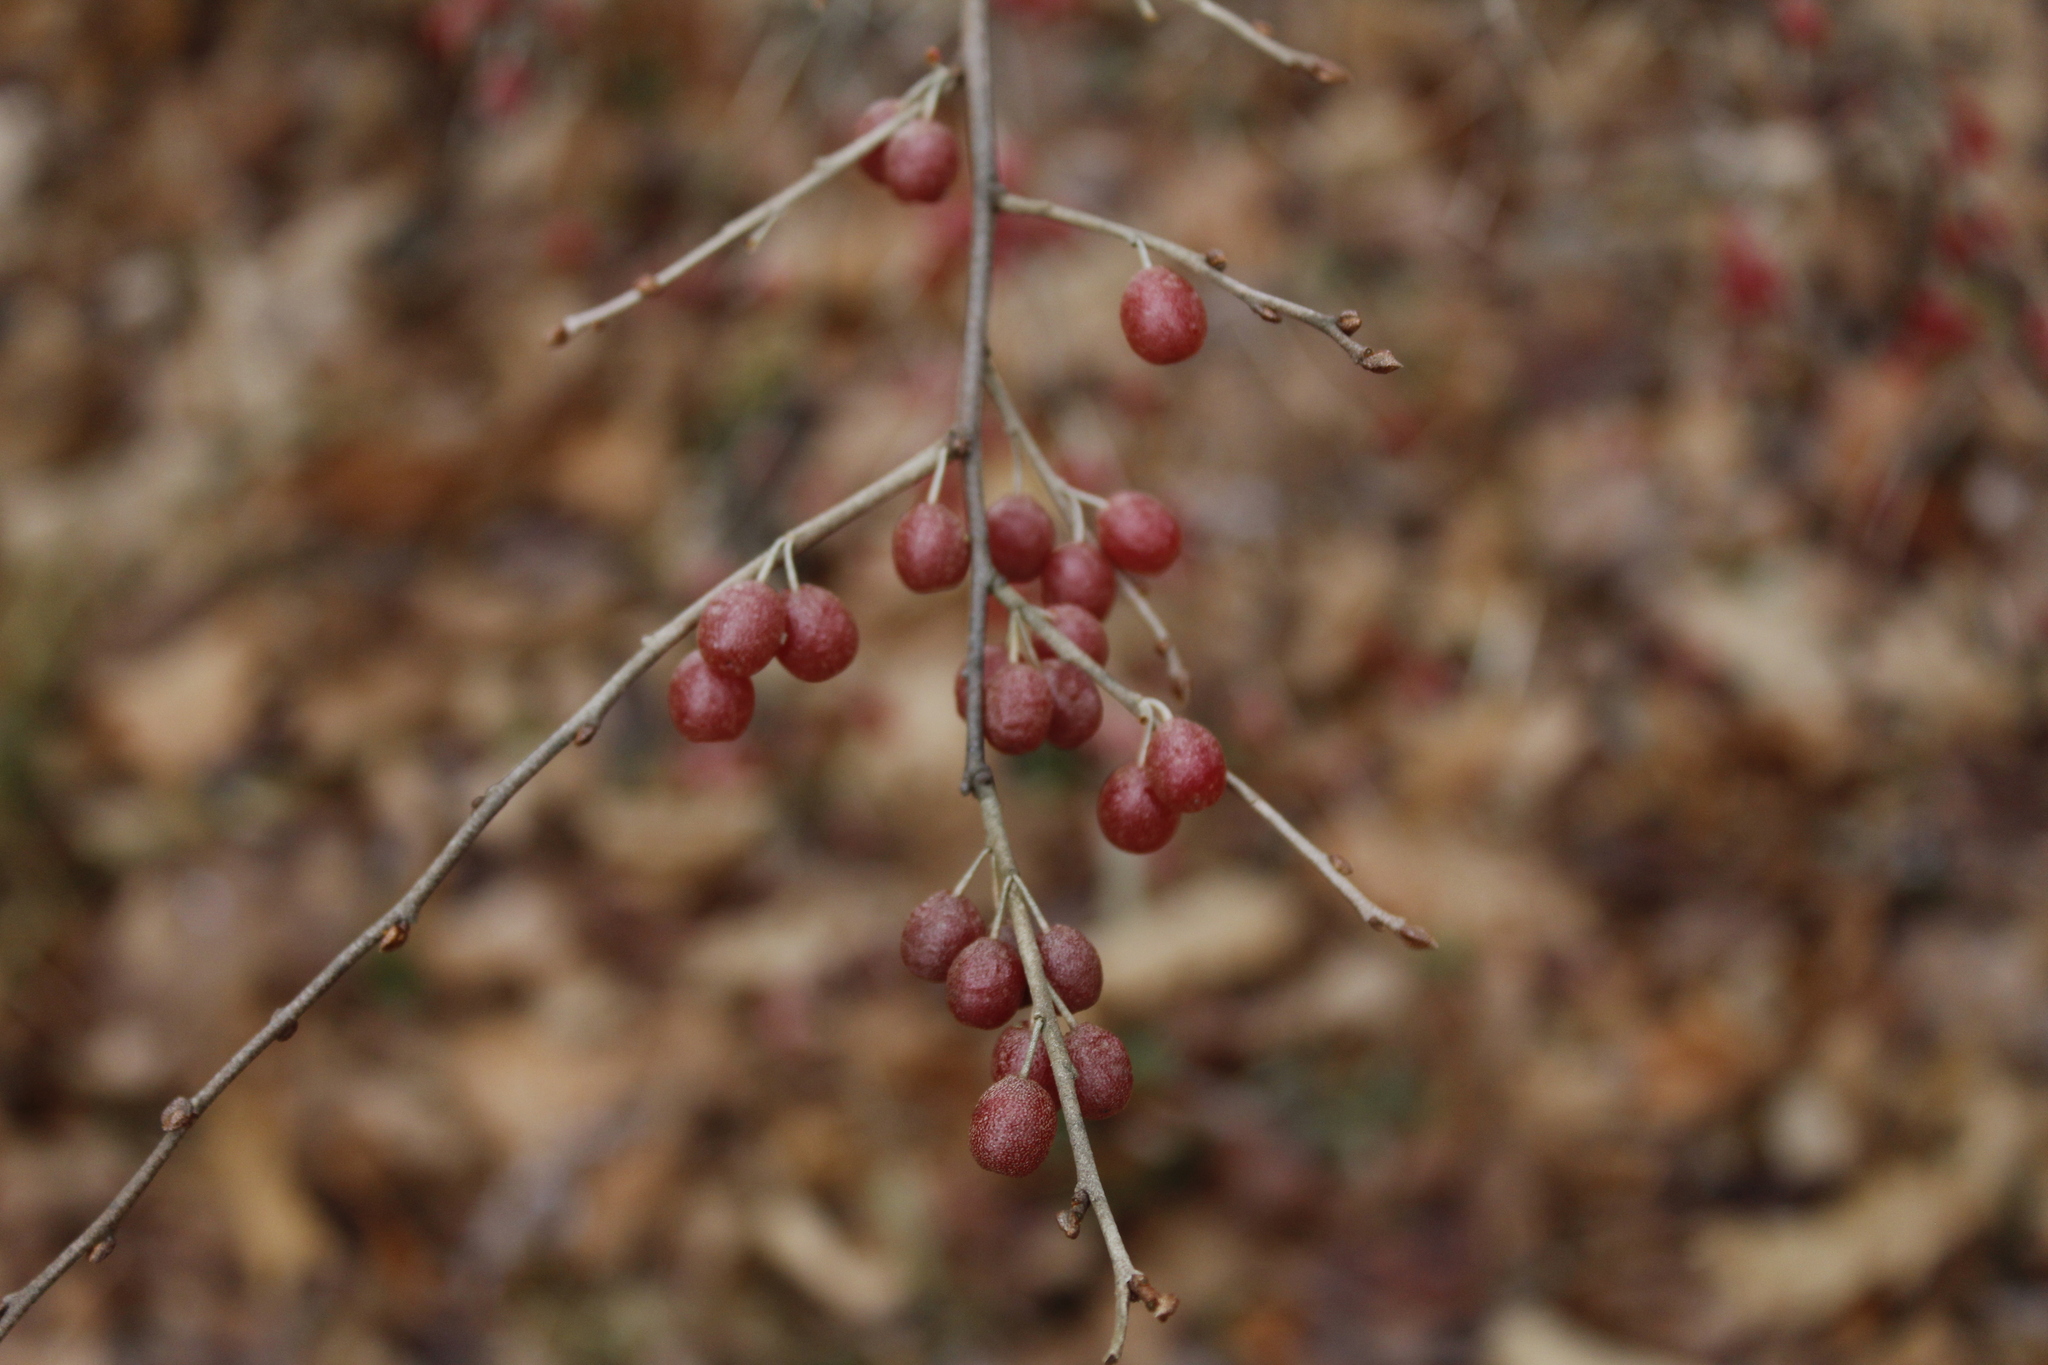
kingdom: Plantae
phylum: Tracheophyta
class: Magnoliopsida
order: Rosales
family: Elaeagnaceae
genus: Elaeagnus
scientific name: Elaeagnus umbellata
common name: Autumn olive
